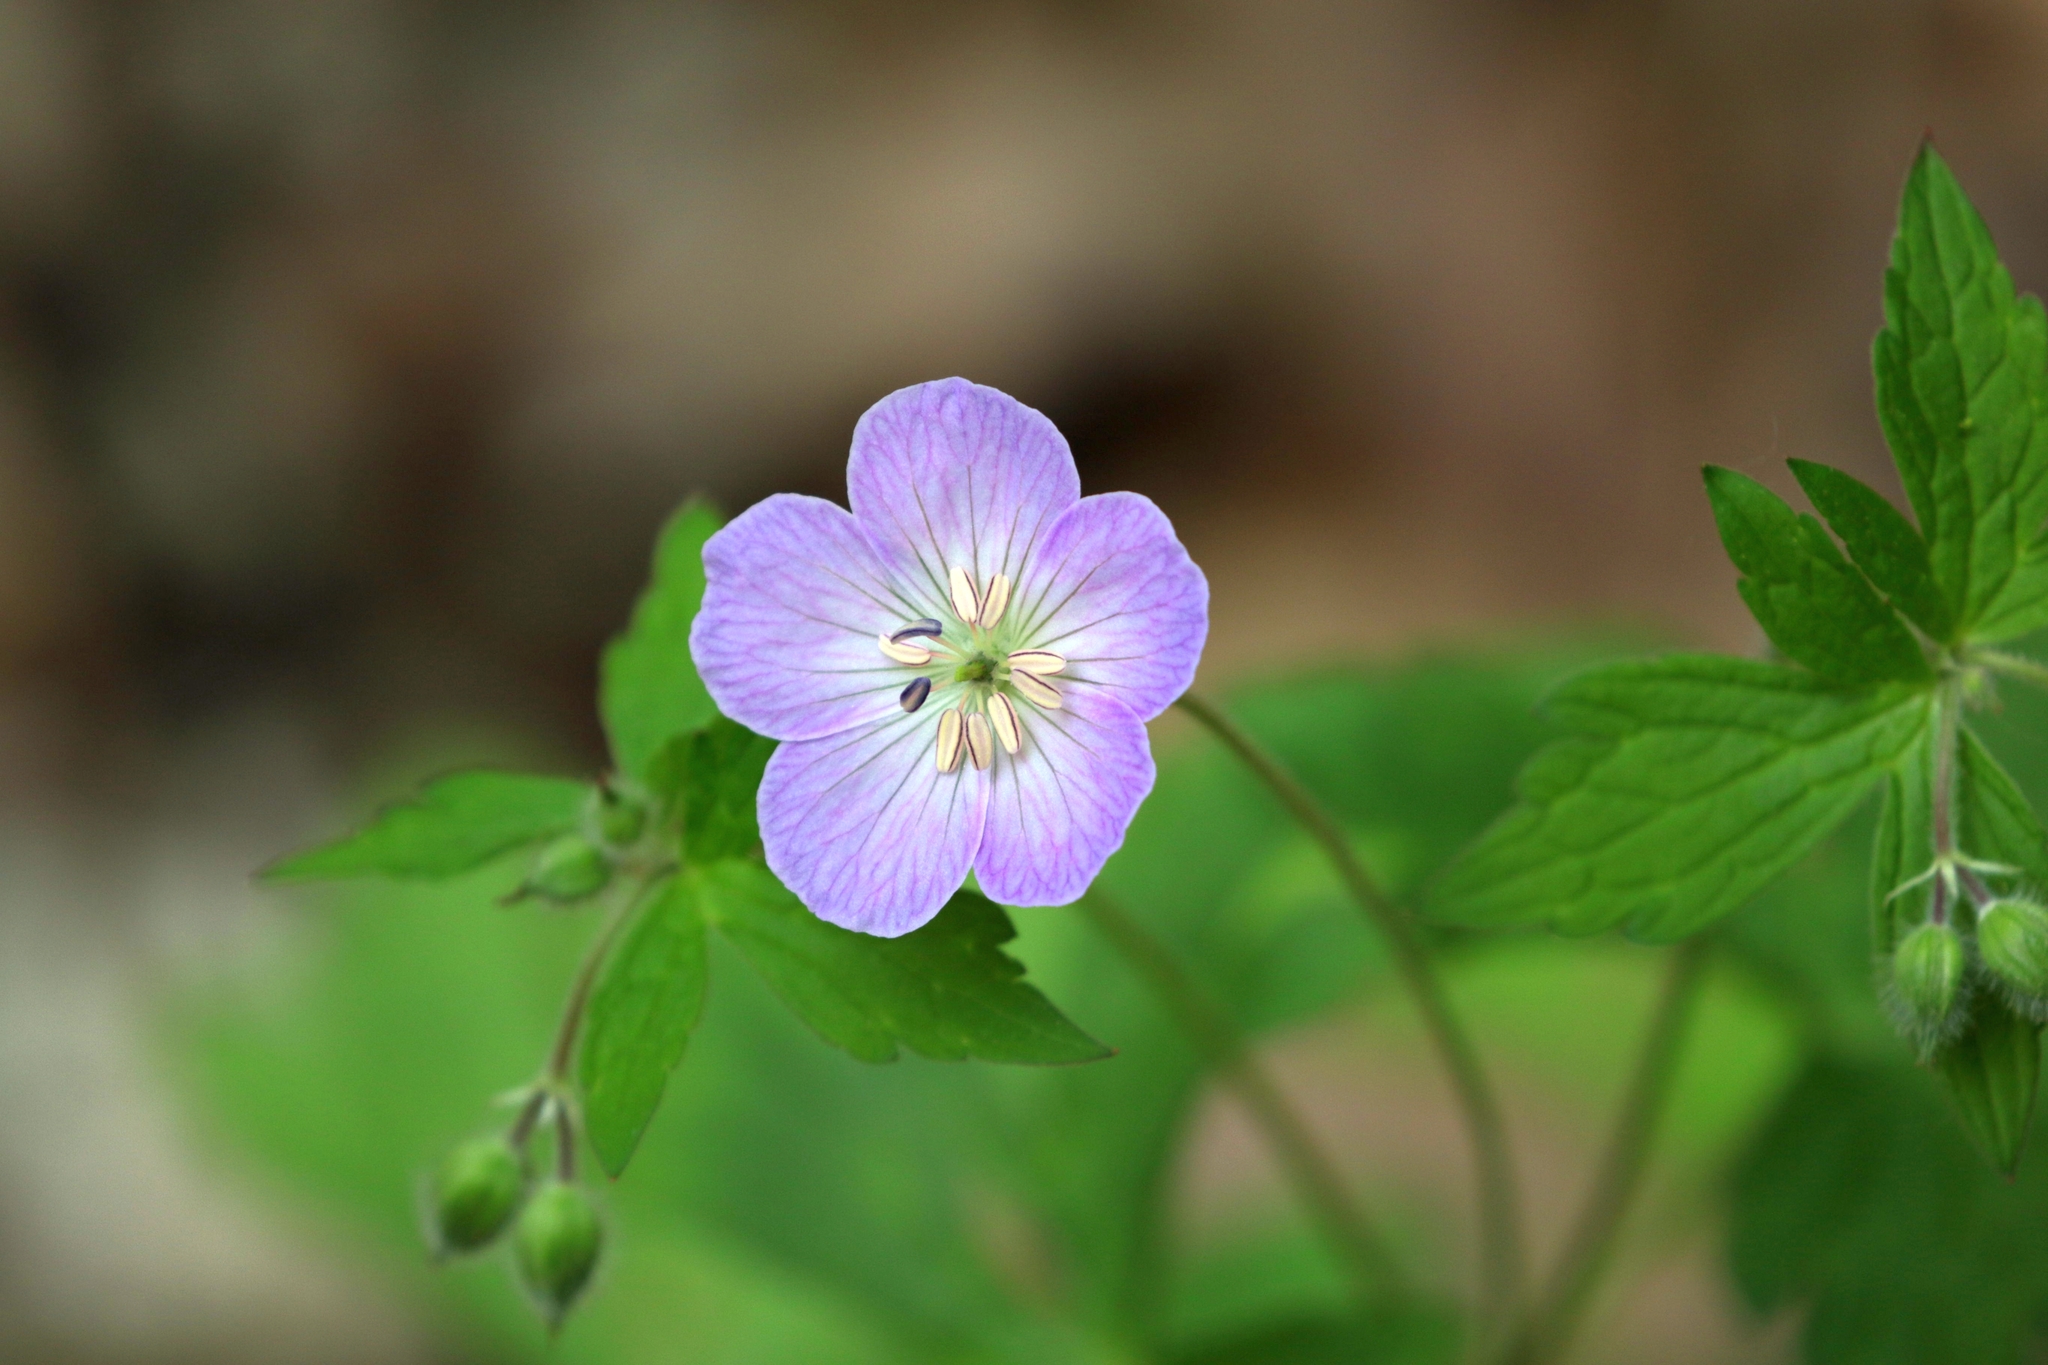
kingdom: Plantae
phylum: Tracheophyta
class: Magnoliopsida
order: Geraniales
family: Geraniaceae
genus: Geranium
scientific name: Geranium maculatum
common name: Spotted geranium
